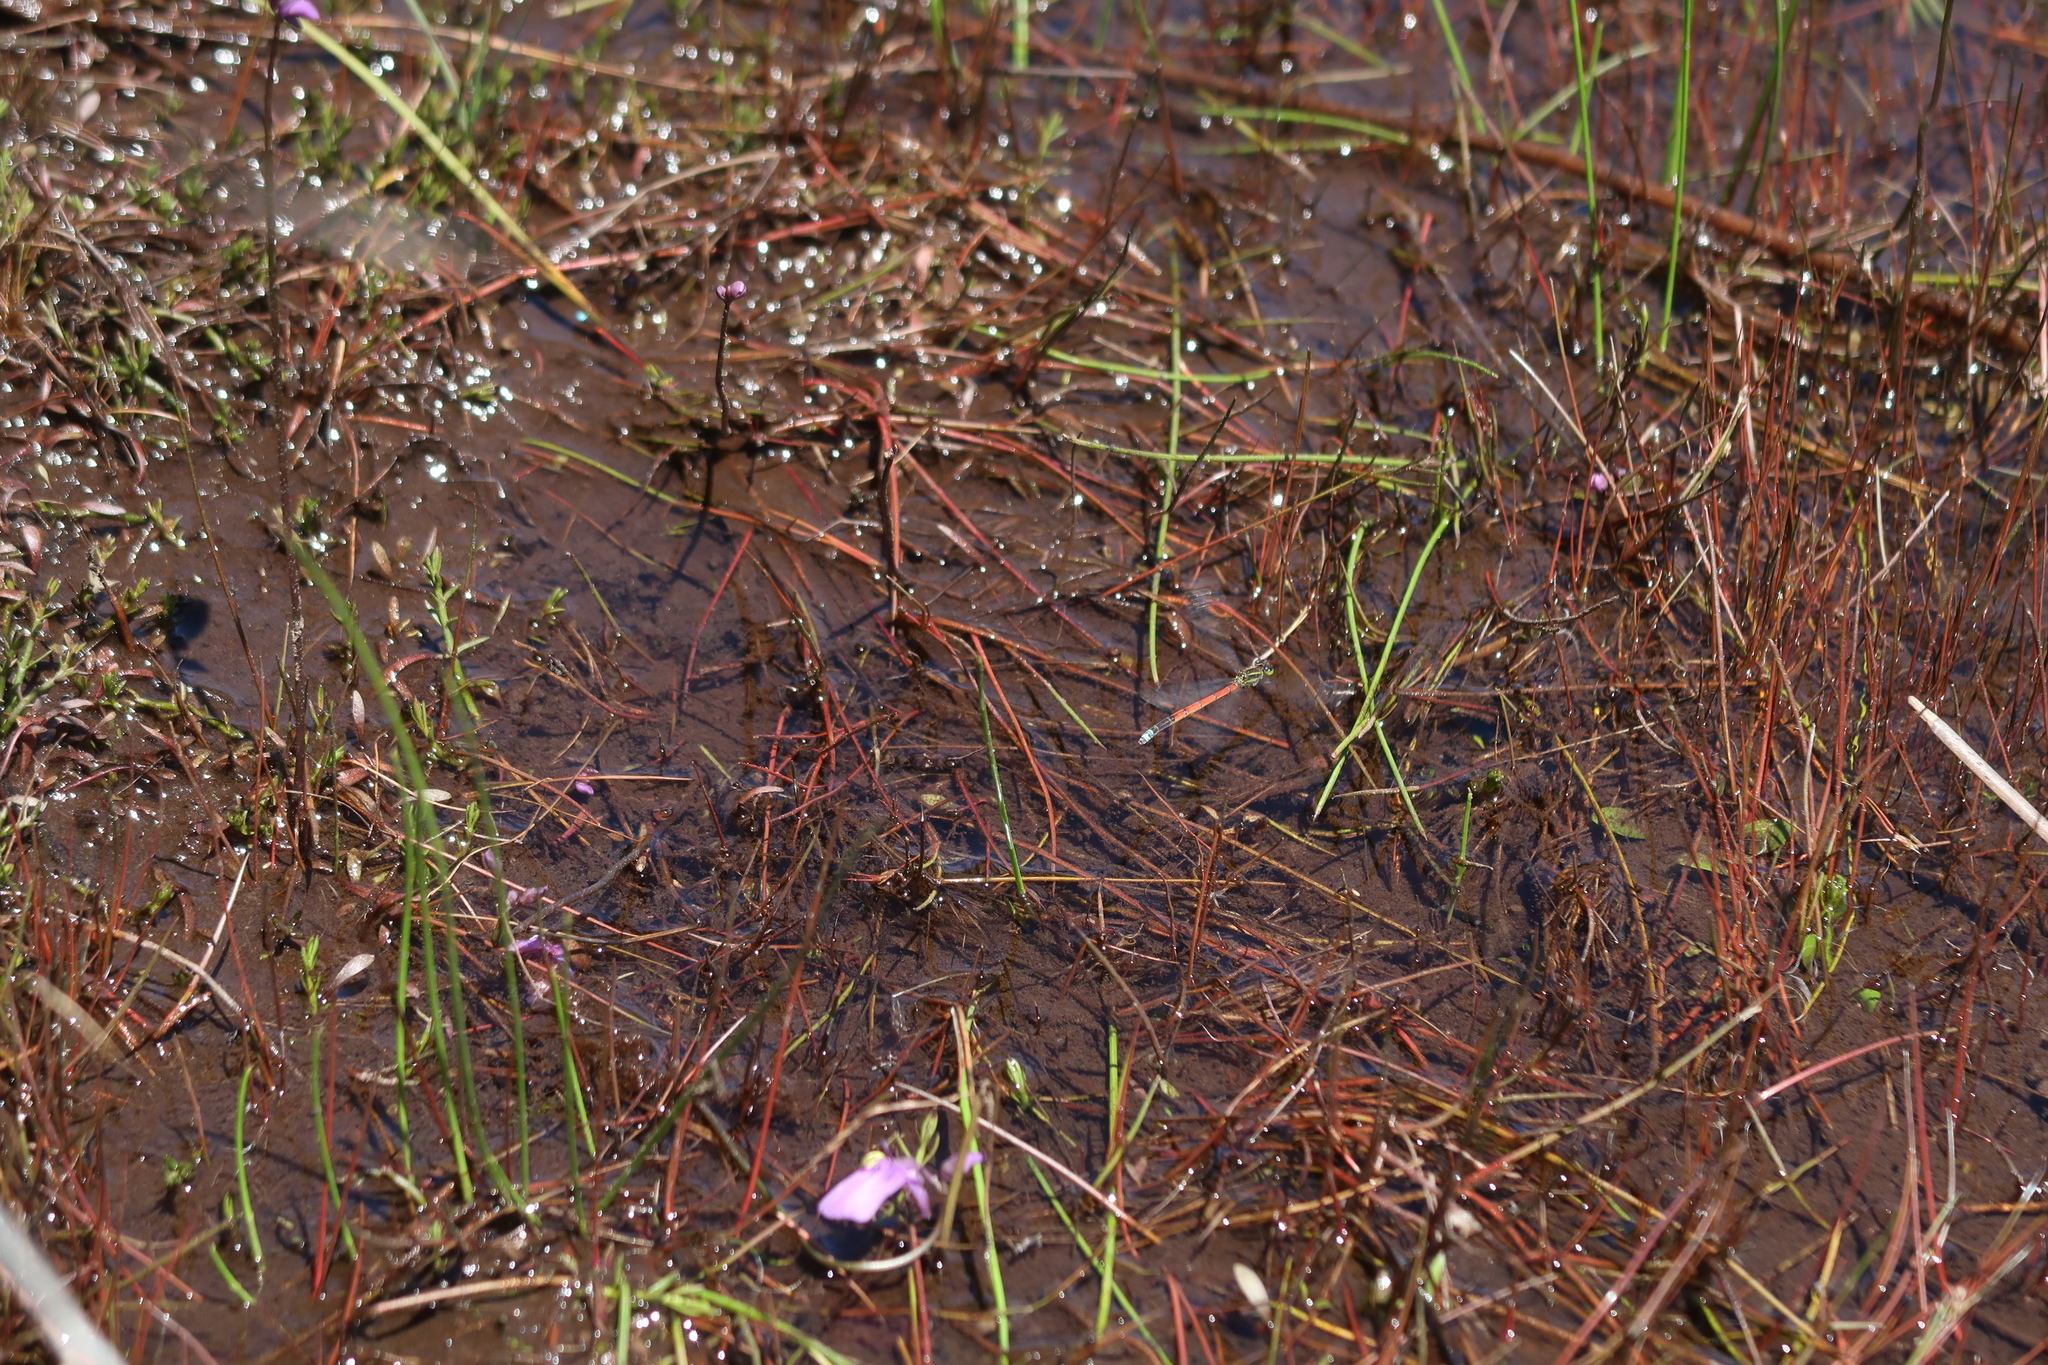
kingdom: Animalia
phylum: Arthropoda
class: Insecta
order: Odonata
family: Coenagrionidae
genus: Ischnura
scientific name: Ischnura aurora
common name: Gossamer damselfly
